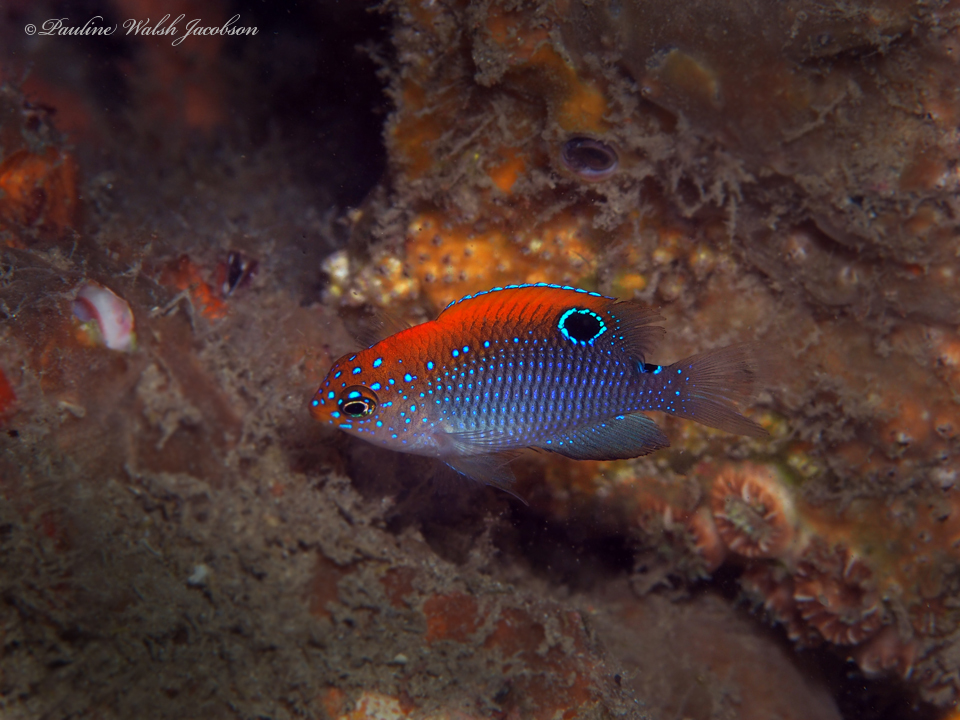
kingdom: Animalia
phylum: Chordata
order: Perciformes
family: Pomacentridae
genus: Stegastes
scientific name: Stegastes adustus
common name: Dusky damselfish
